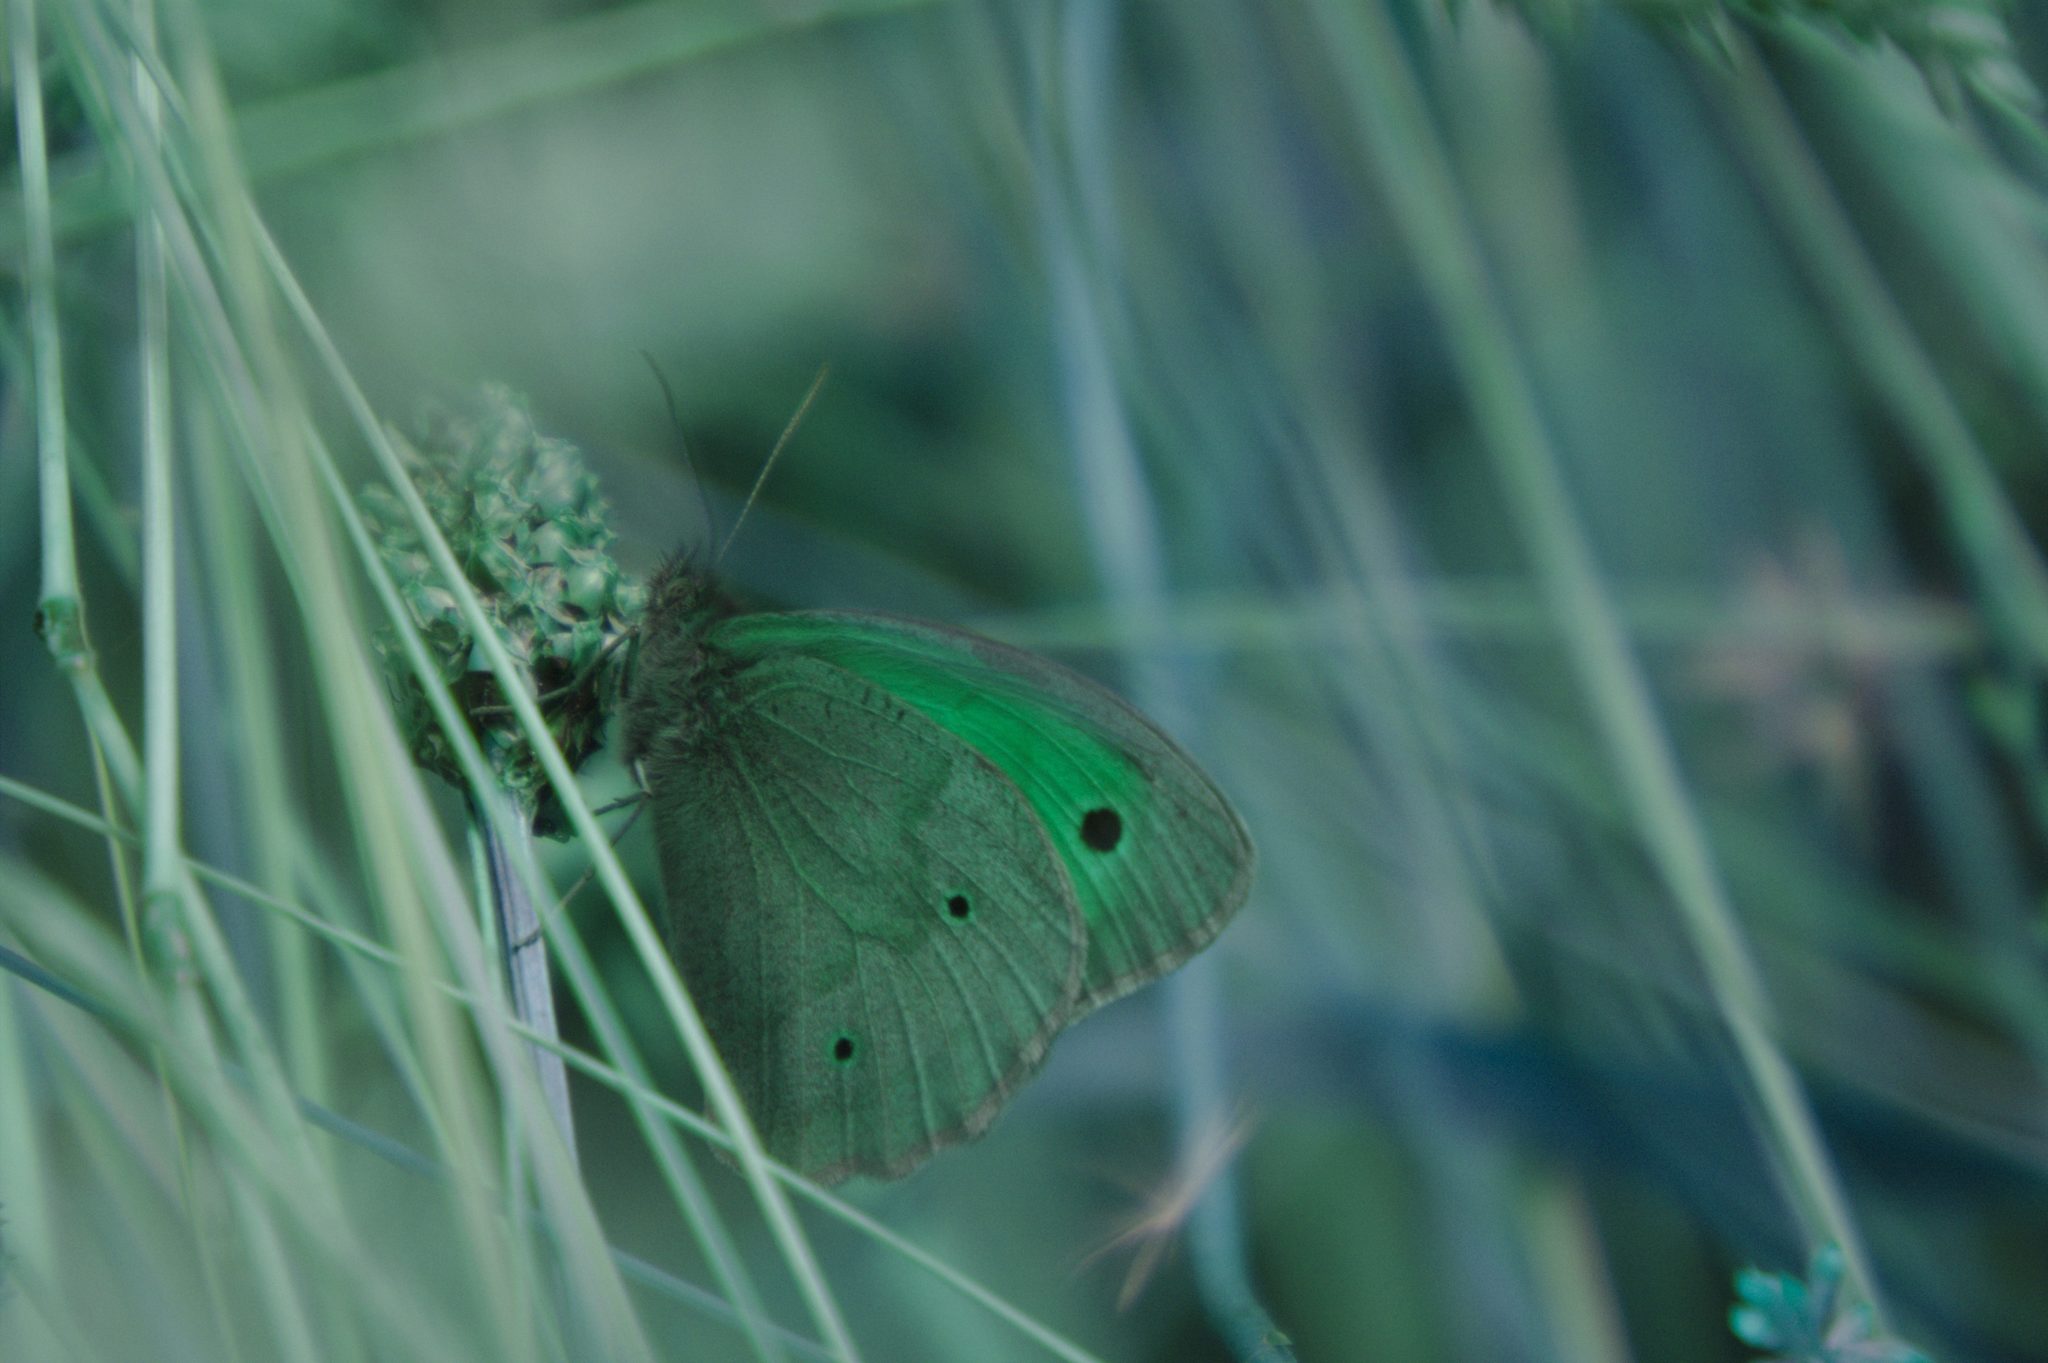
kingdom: Animalia
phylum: Arthropoda
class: Insecta
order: Lepidoptera
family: Nymphalidae
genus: Maniola
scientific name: Maniola jurtina
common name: Meadow brown
